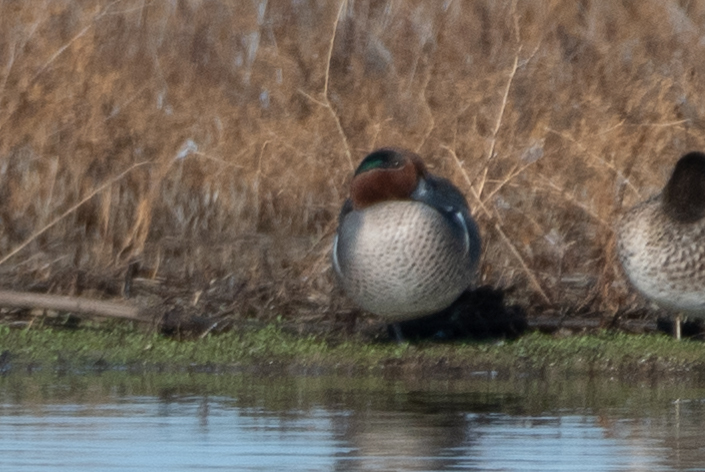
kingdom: Animalia
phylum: Chordata
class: Aves
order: Anseriformes
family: Anatidae
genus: Anas
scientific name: Anas crecca
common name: Eurasian teal
